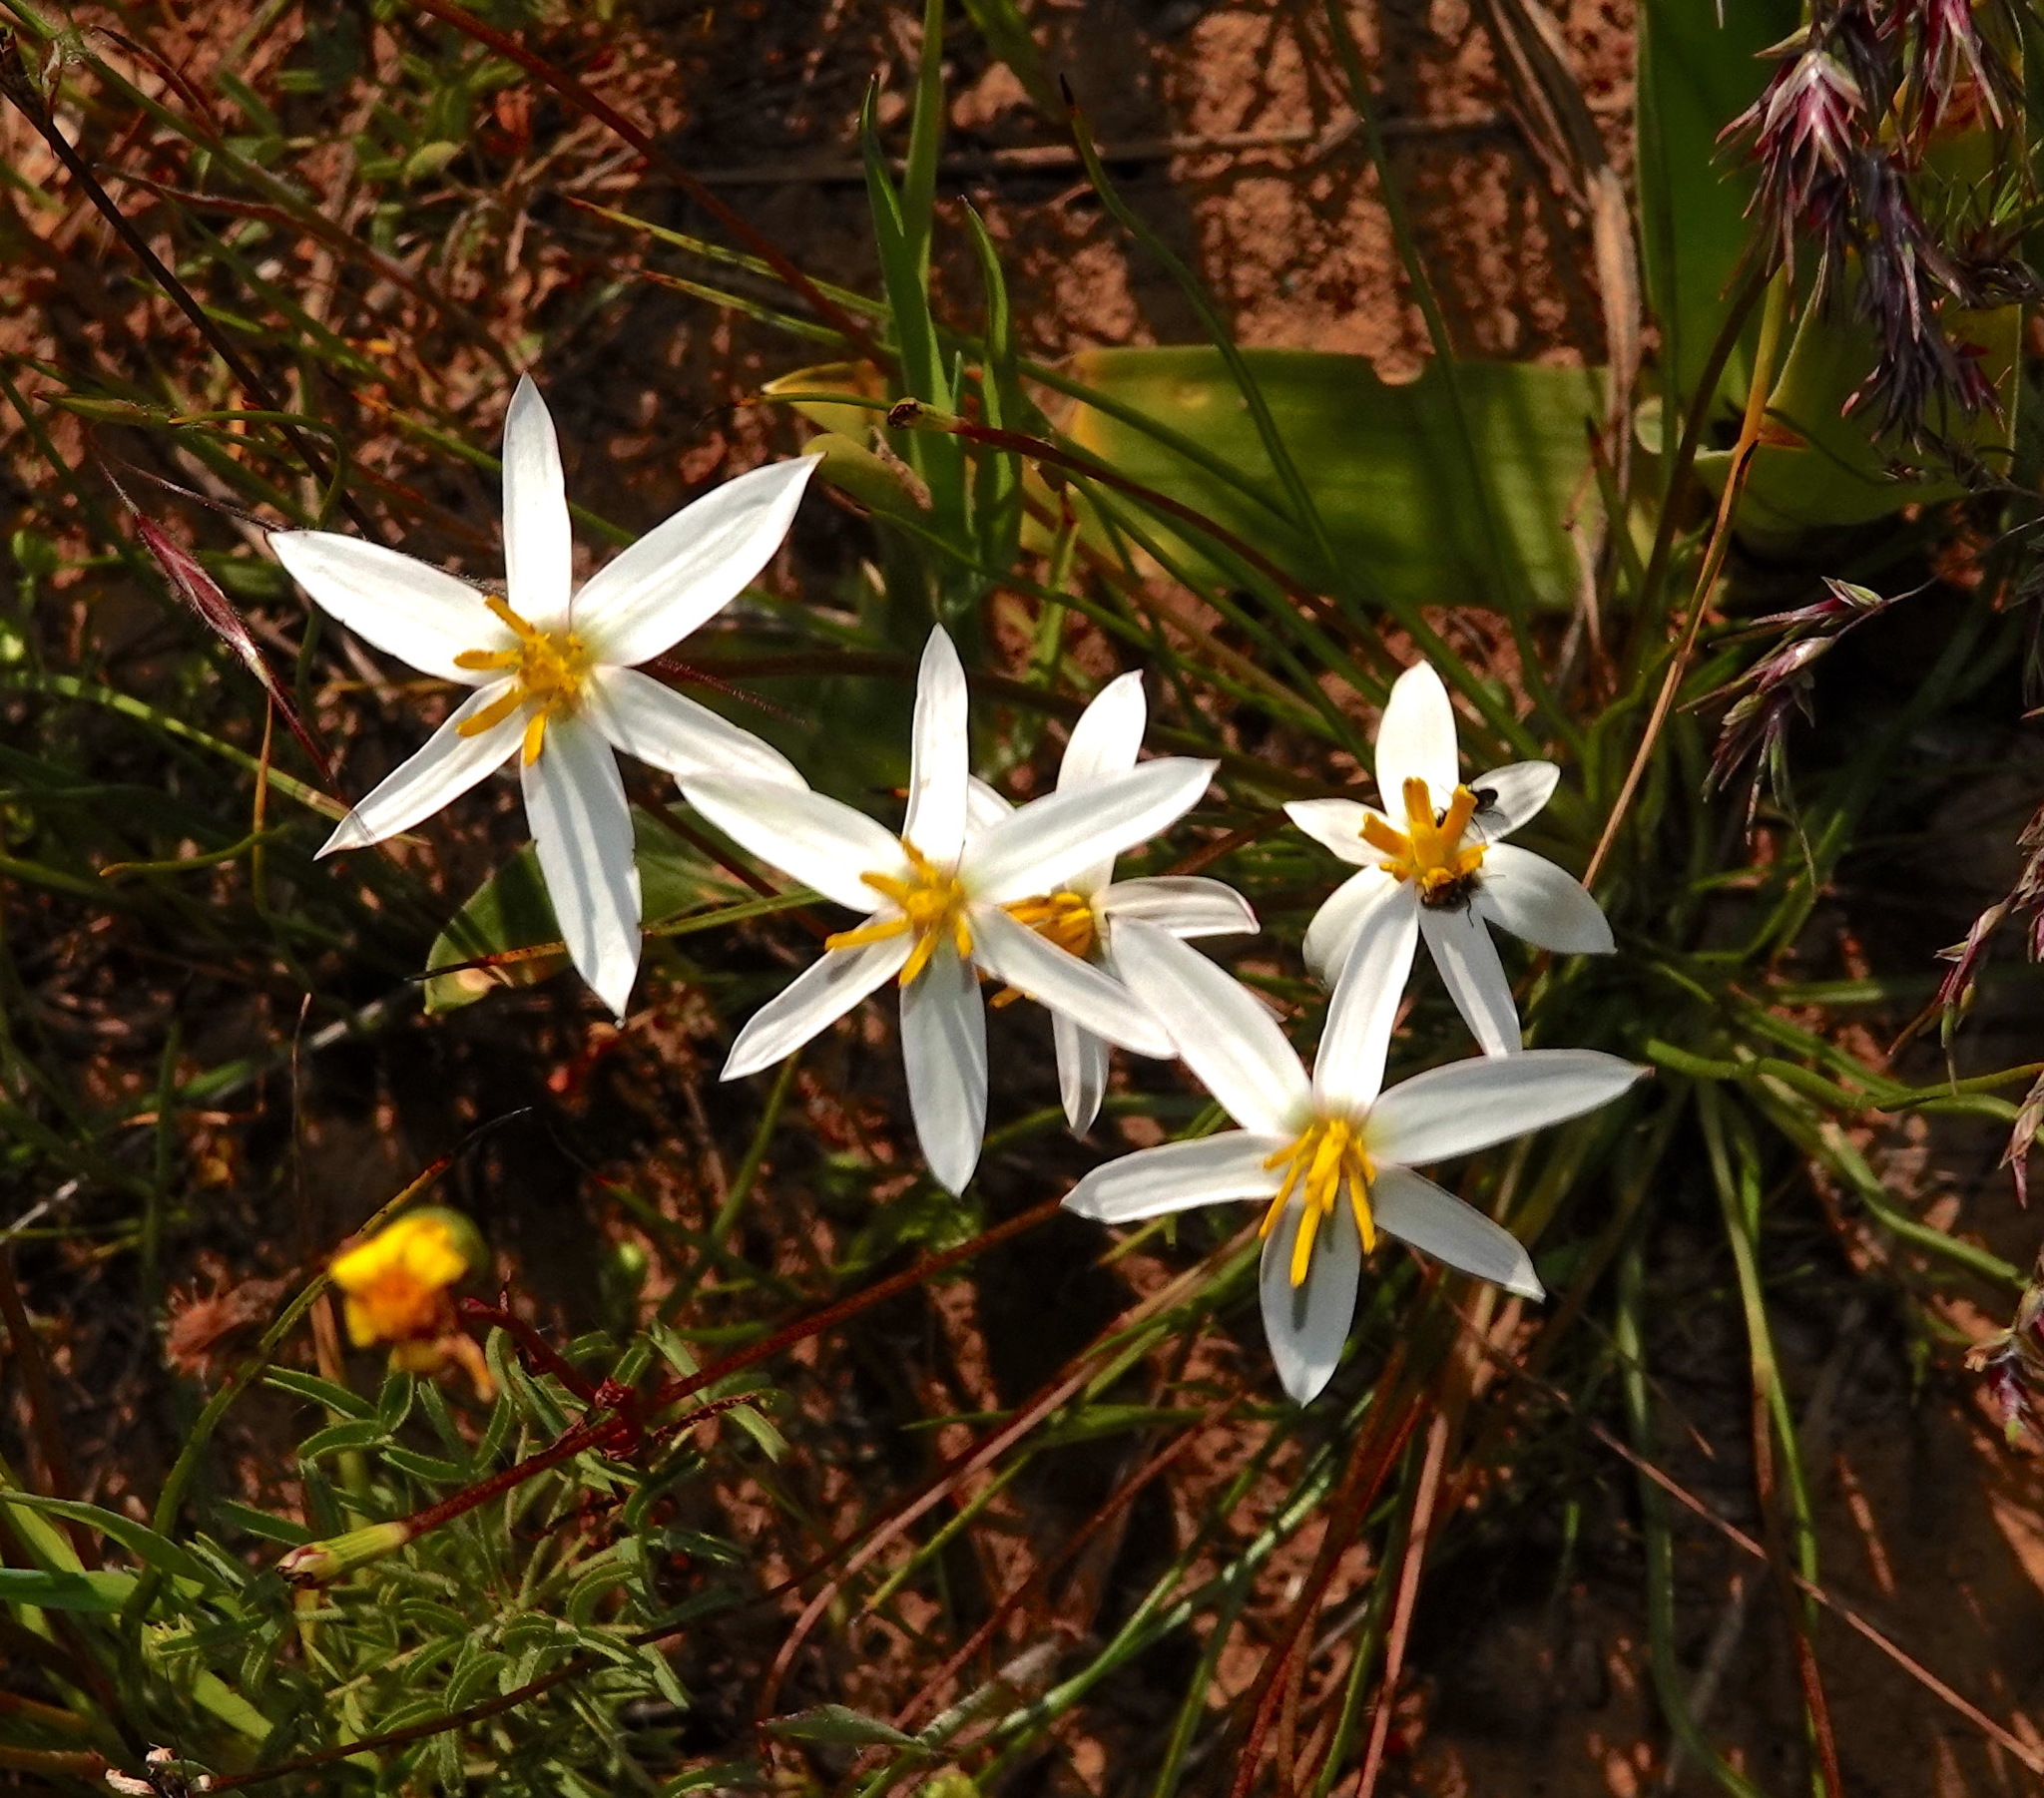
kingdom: Plantae
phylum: Tracheophyta
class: Liliopsida
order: Asparagales
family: Hypoxidaceae
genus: Pauridia
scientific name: Pauridia serrata
